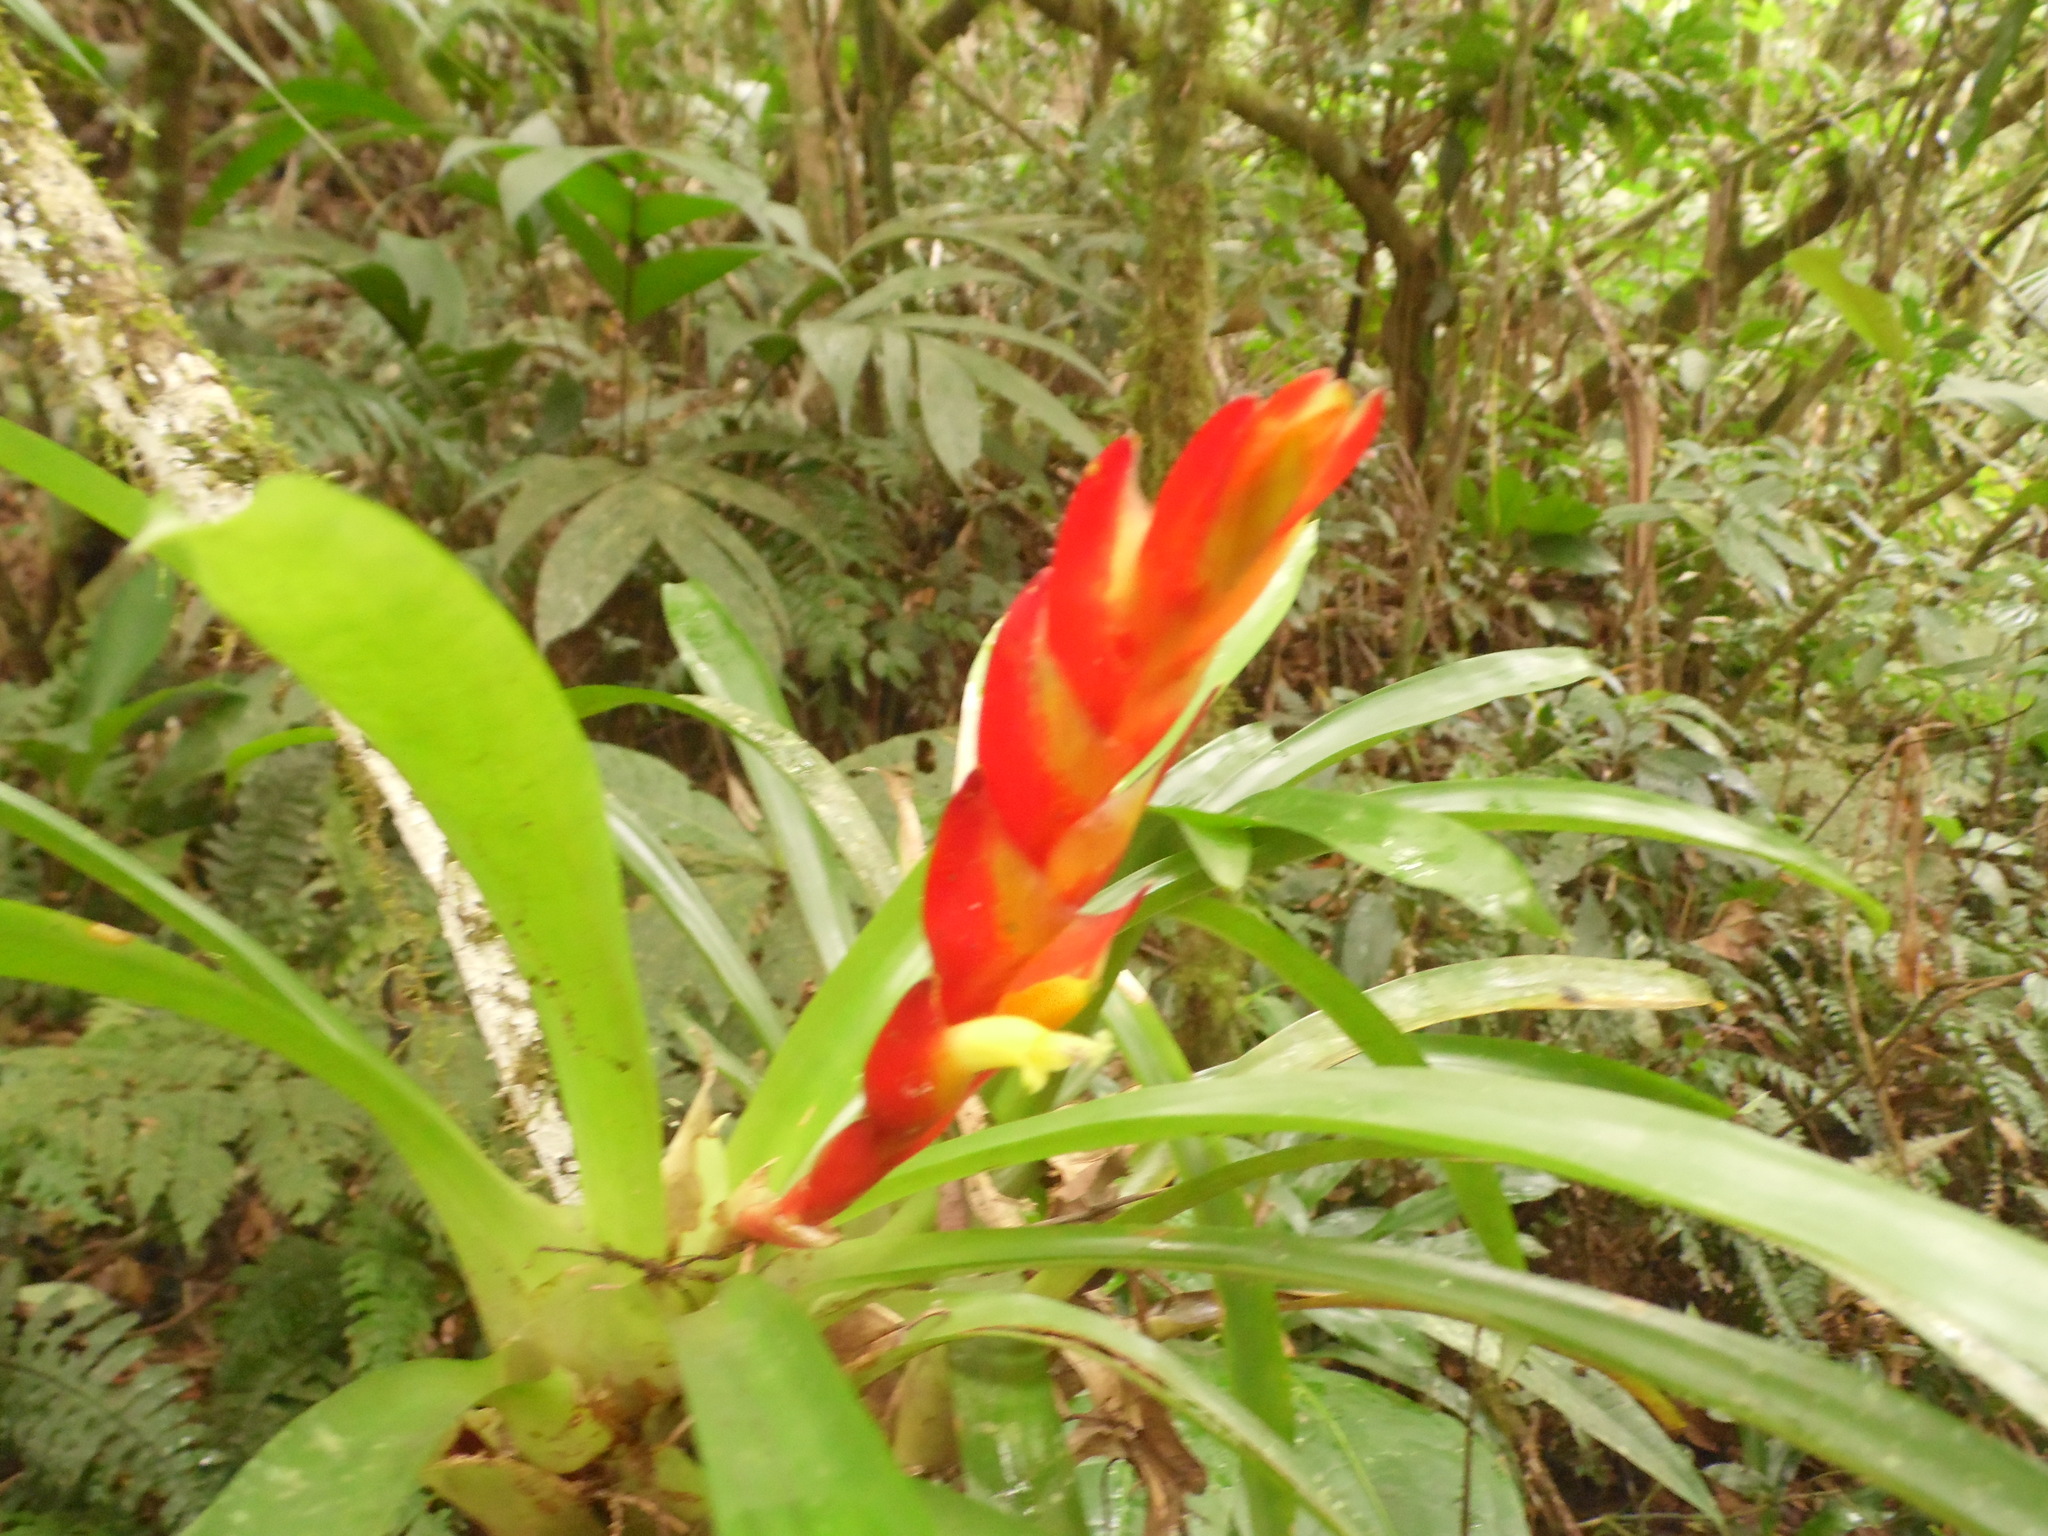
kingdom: Plantae
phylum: Tracheophyta
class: Liliopsida
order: Poales
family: Bromeliaceae
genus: Vriesea
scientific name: Vriesea incurvata
